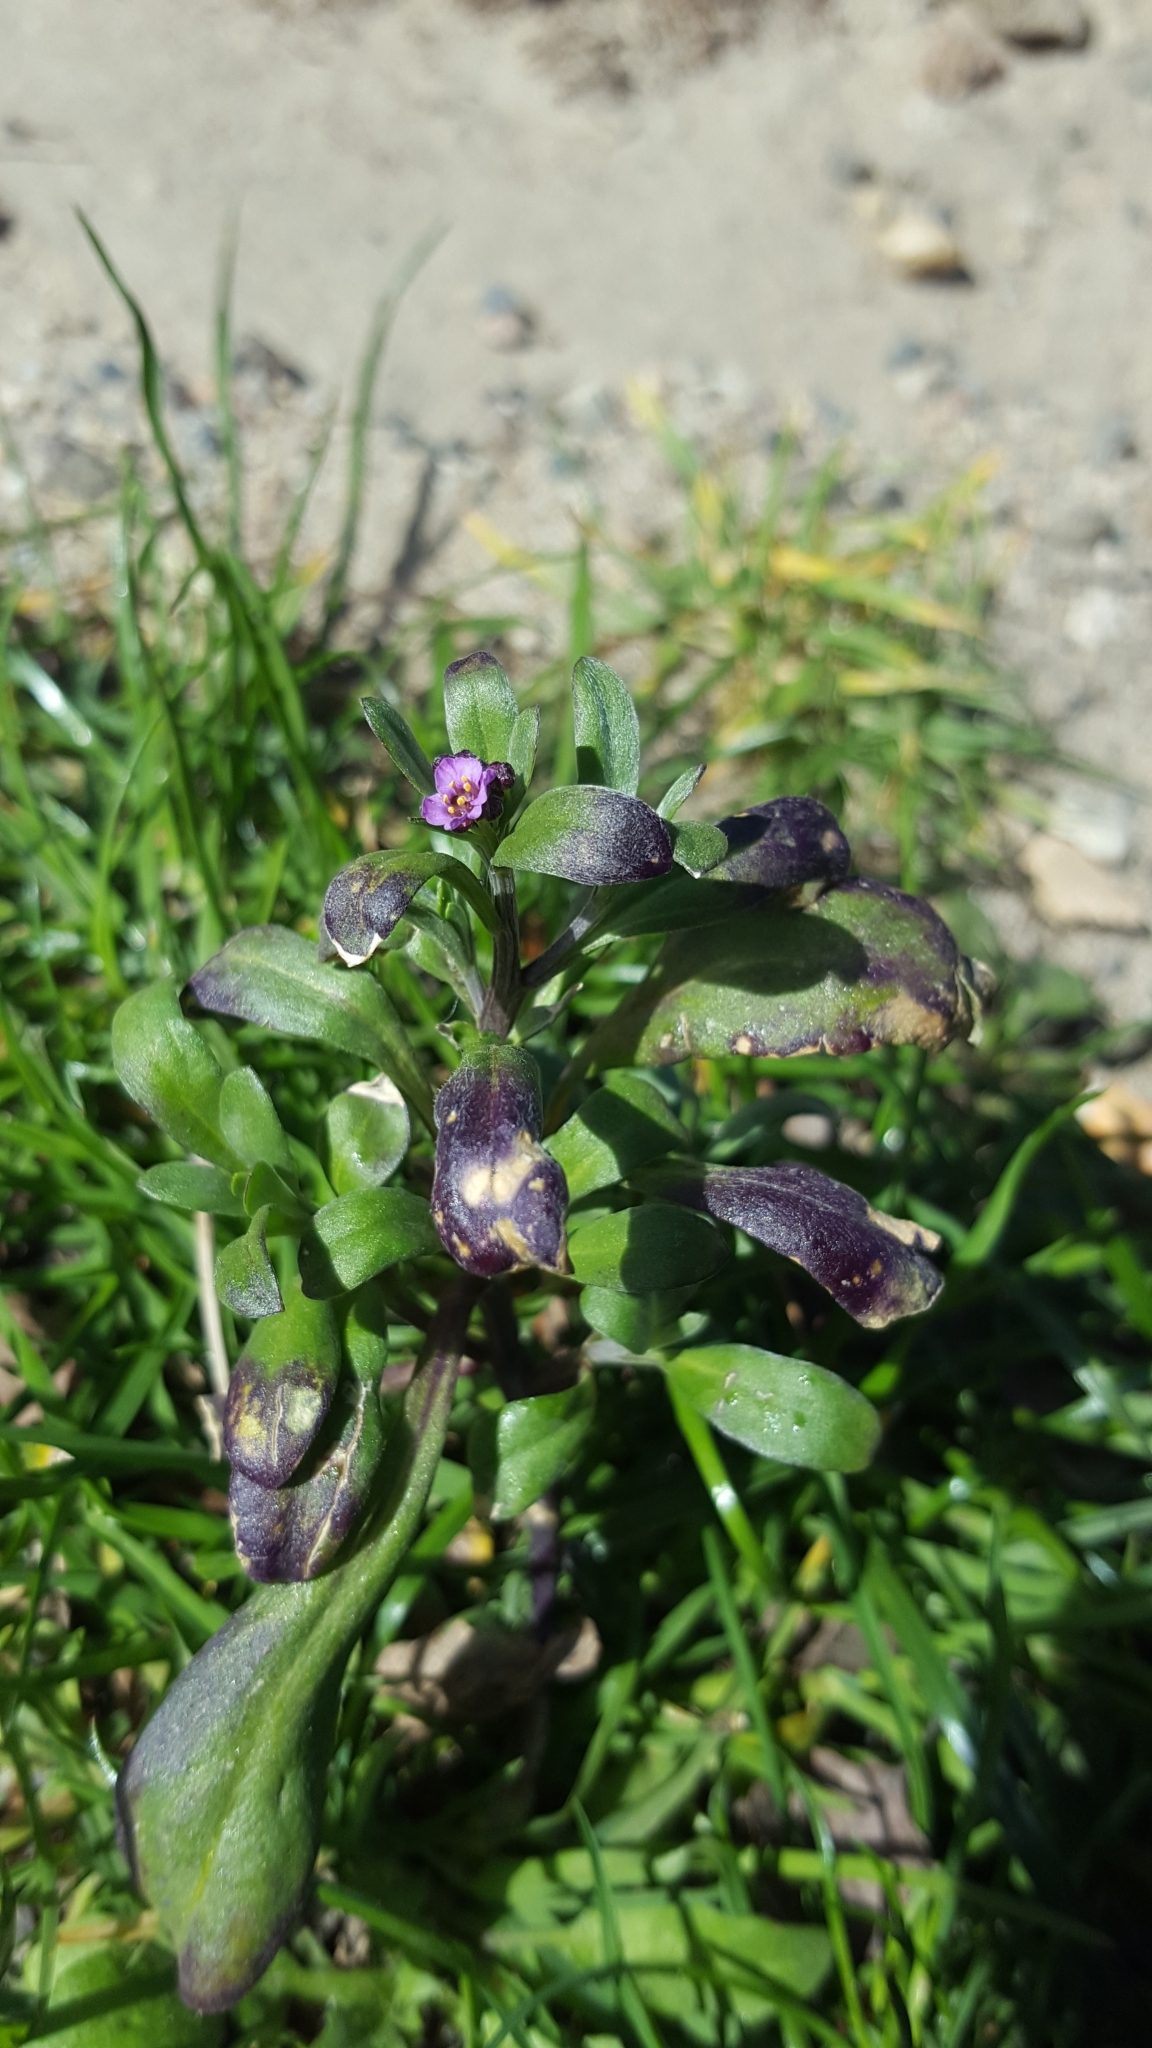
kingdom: Plantae
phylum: Tracheophyta
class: Magnoliopsida
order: Brassicales
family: Brassicaceae
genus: Lobularia
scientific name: Lobularia maritima
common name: Sweet alison
